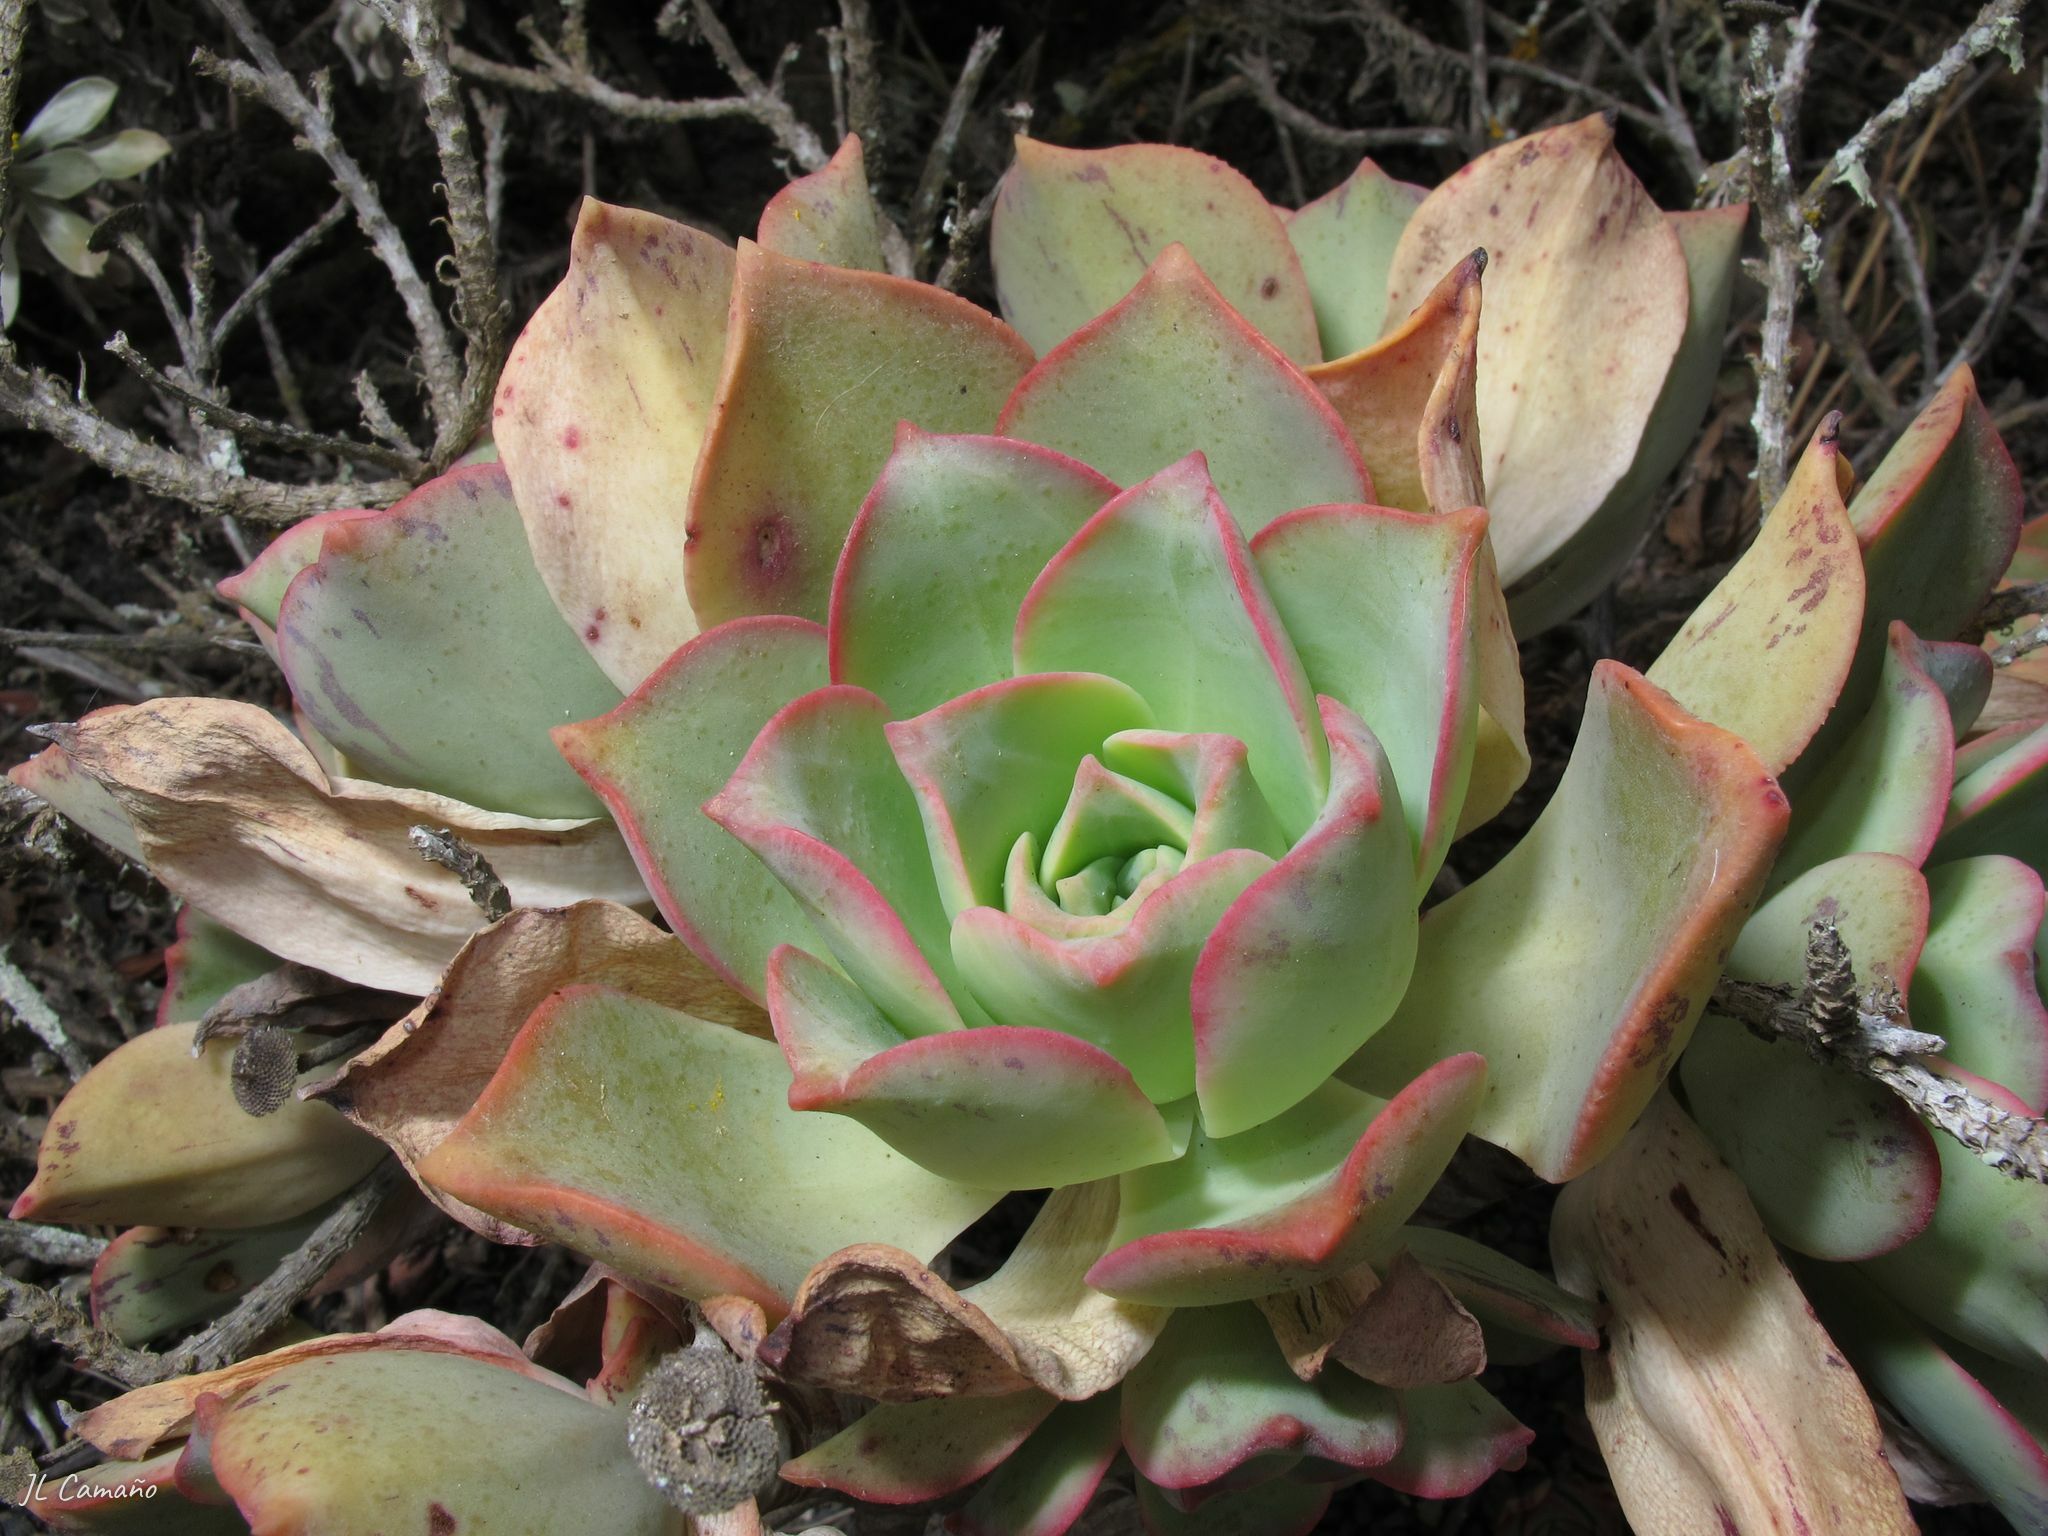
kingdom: Plantae
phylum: Tracheophyta
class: Magnoliopsida
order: Saxifragales
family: Crassulaceae
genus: Aeonium
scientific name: Aeonium lancerottense
